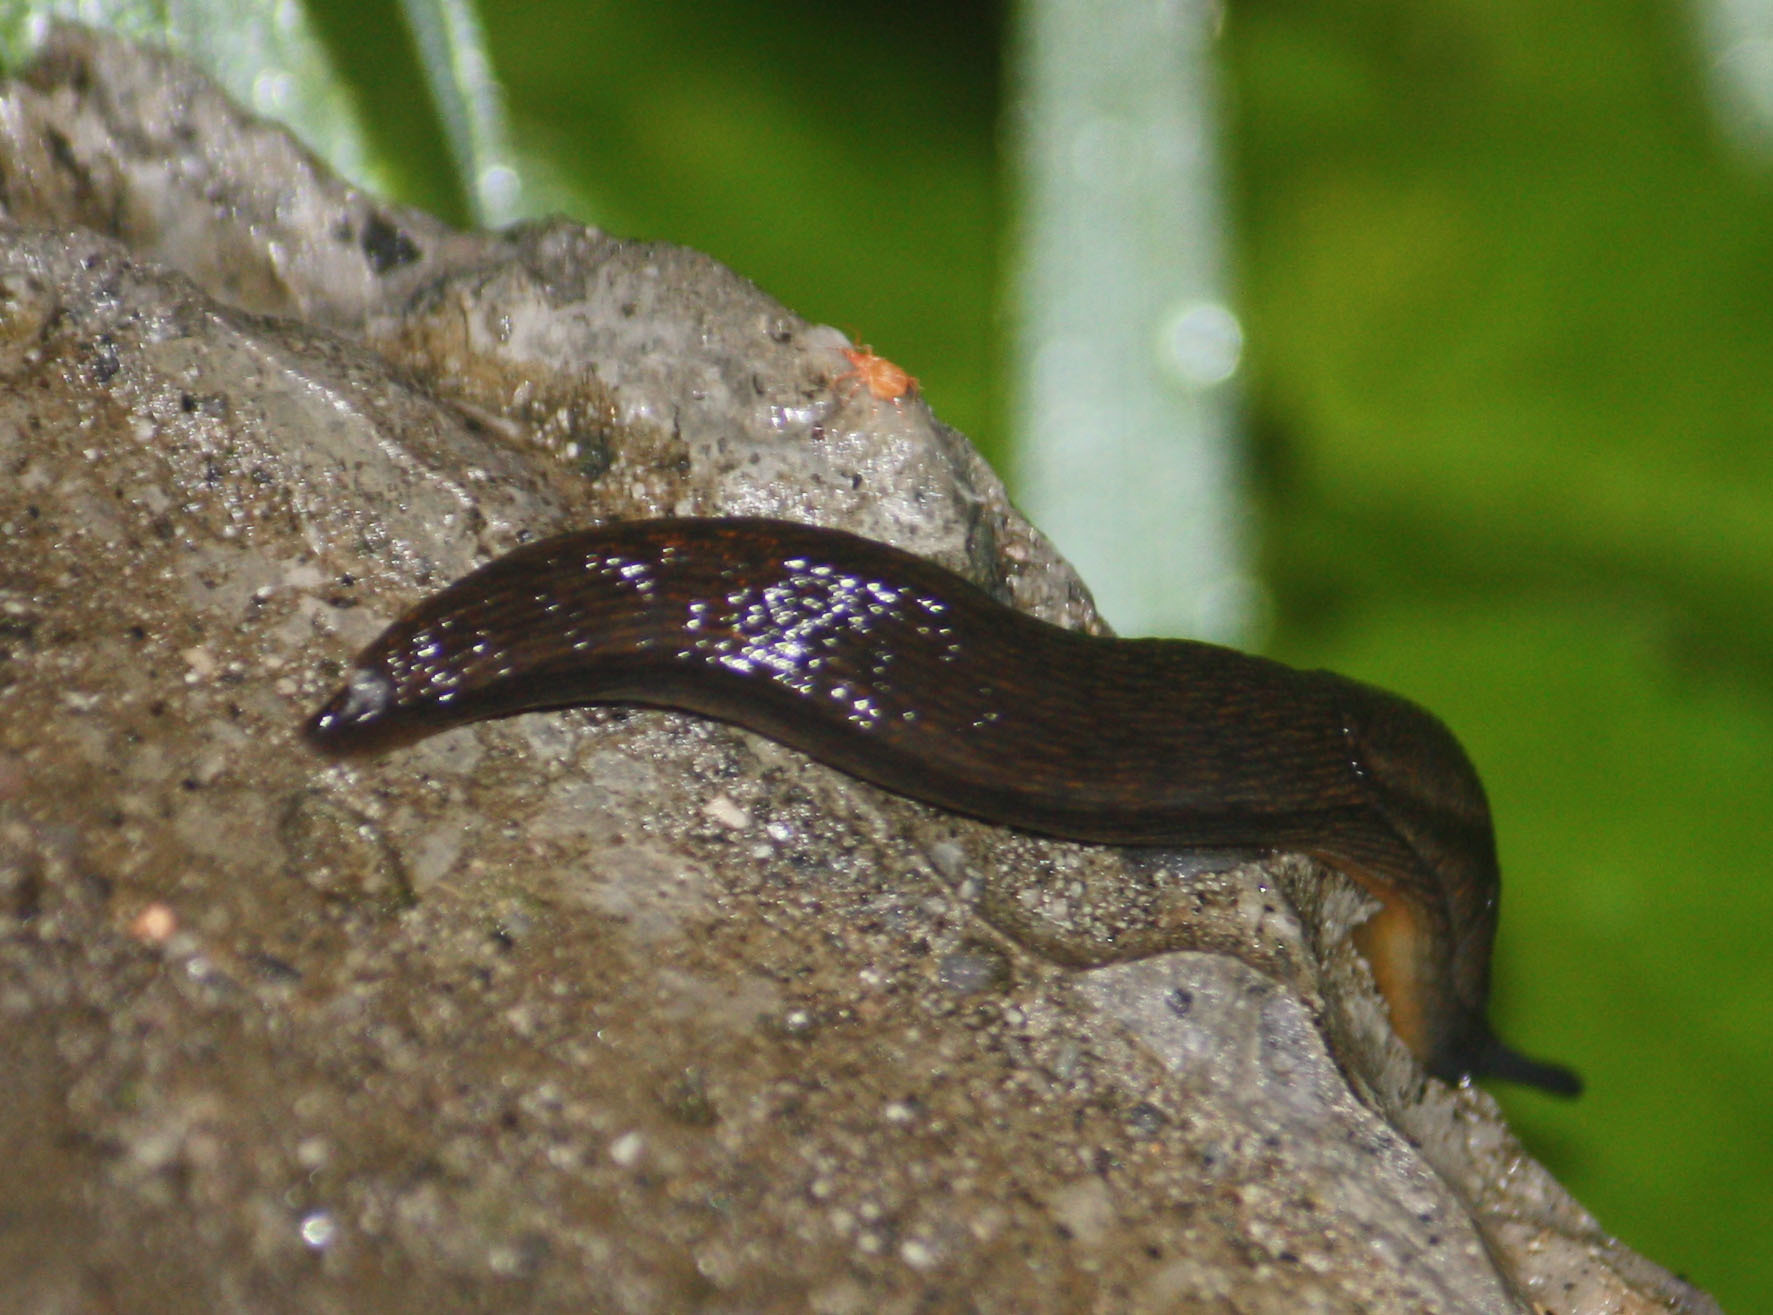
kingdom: Animalia
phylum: Mollusca
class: Gastropoda
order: Stylommatophora
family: Arionidae
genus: Arion
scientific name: Arion distinctus
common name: Darkface arion
